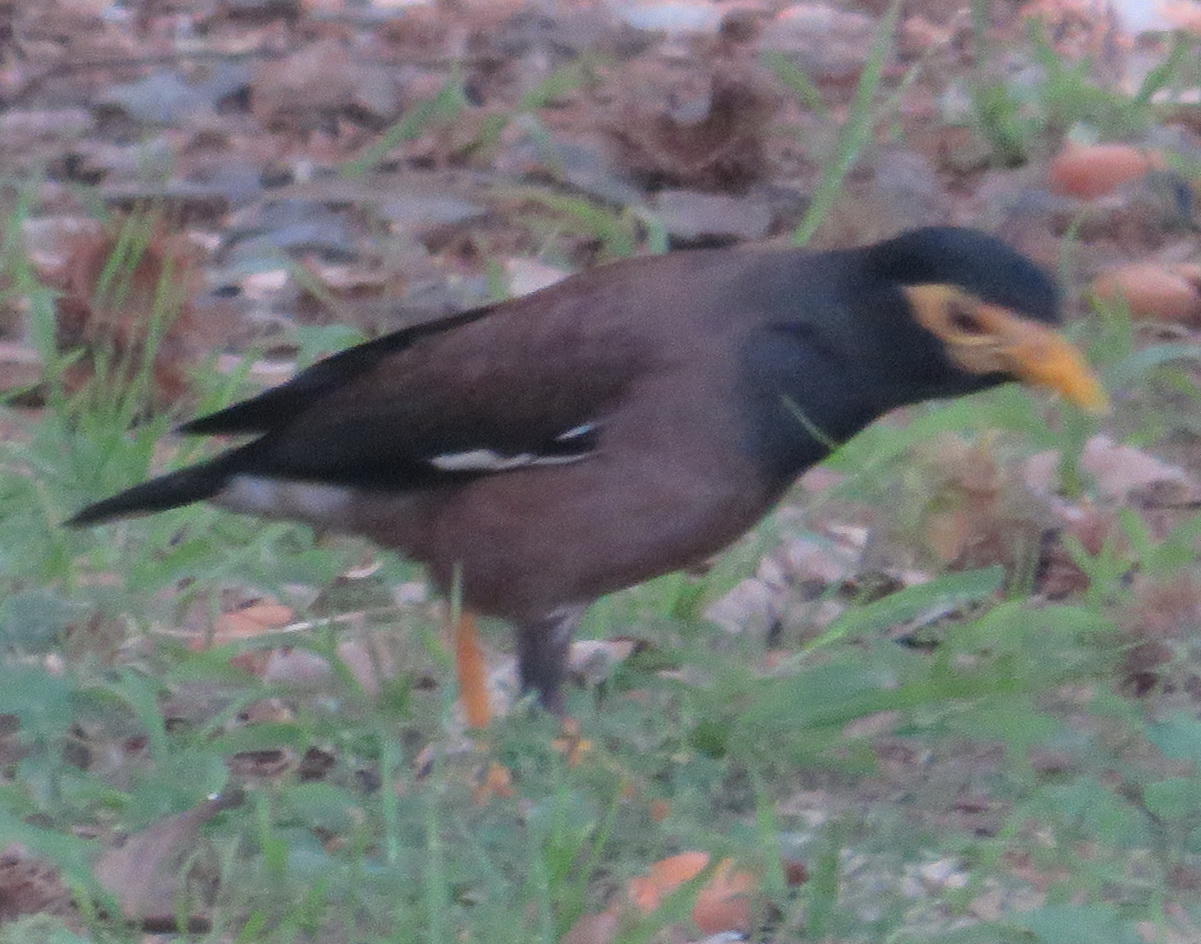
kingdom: Animalia
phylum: Chordata
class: Aves
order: Passeriformes
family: Sturnidae
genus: Acridotheres
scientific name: Acridotheres tristis
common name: Common myna
